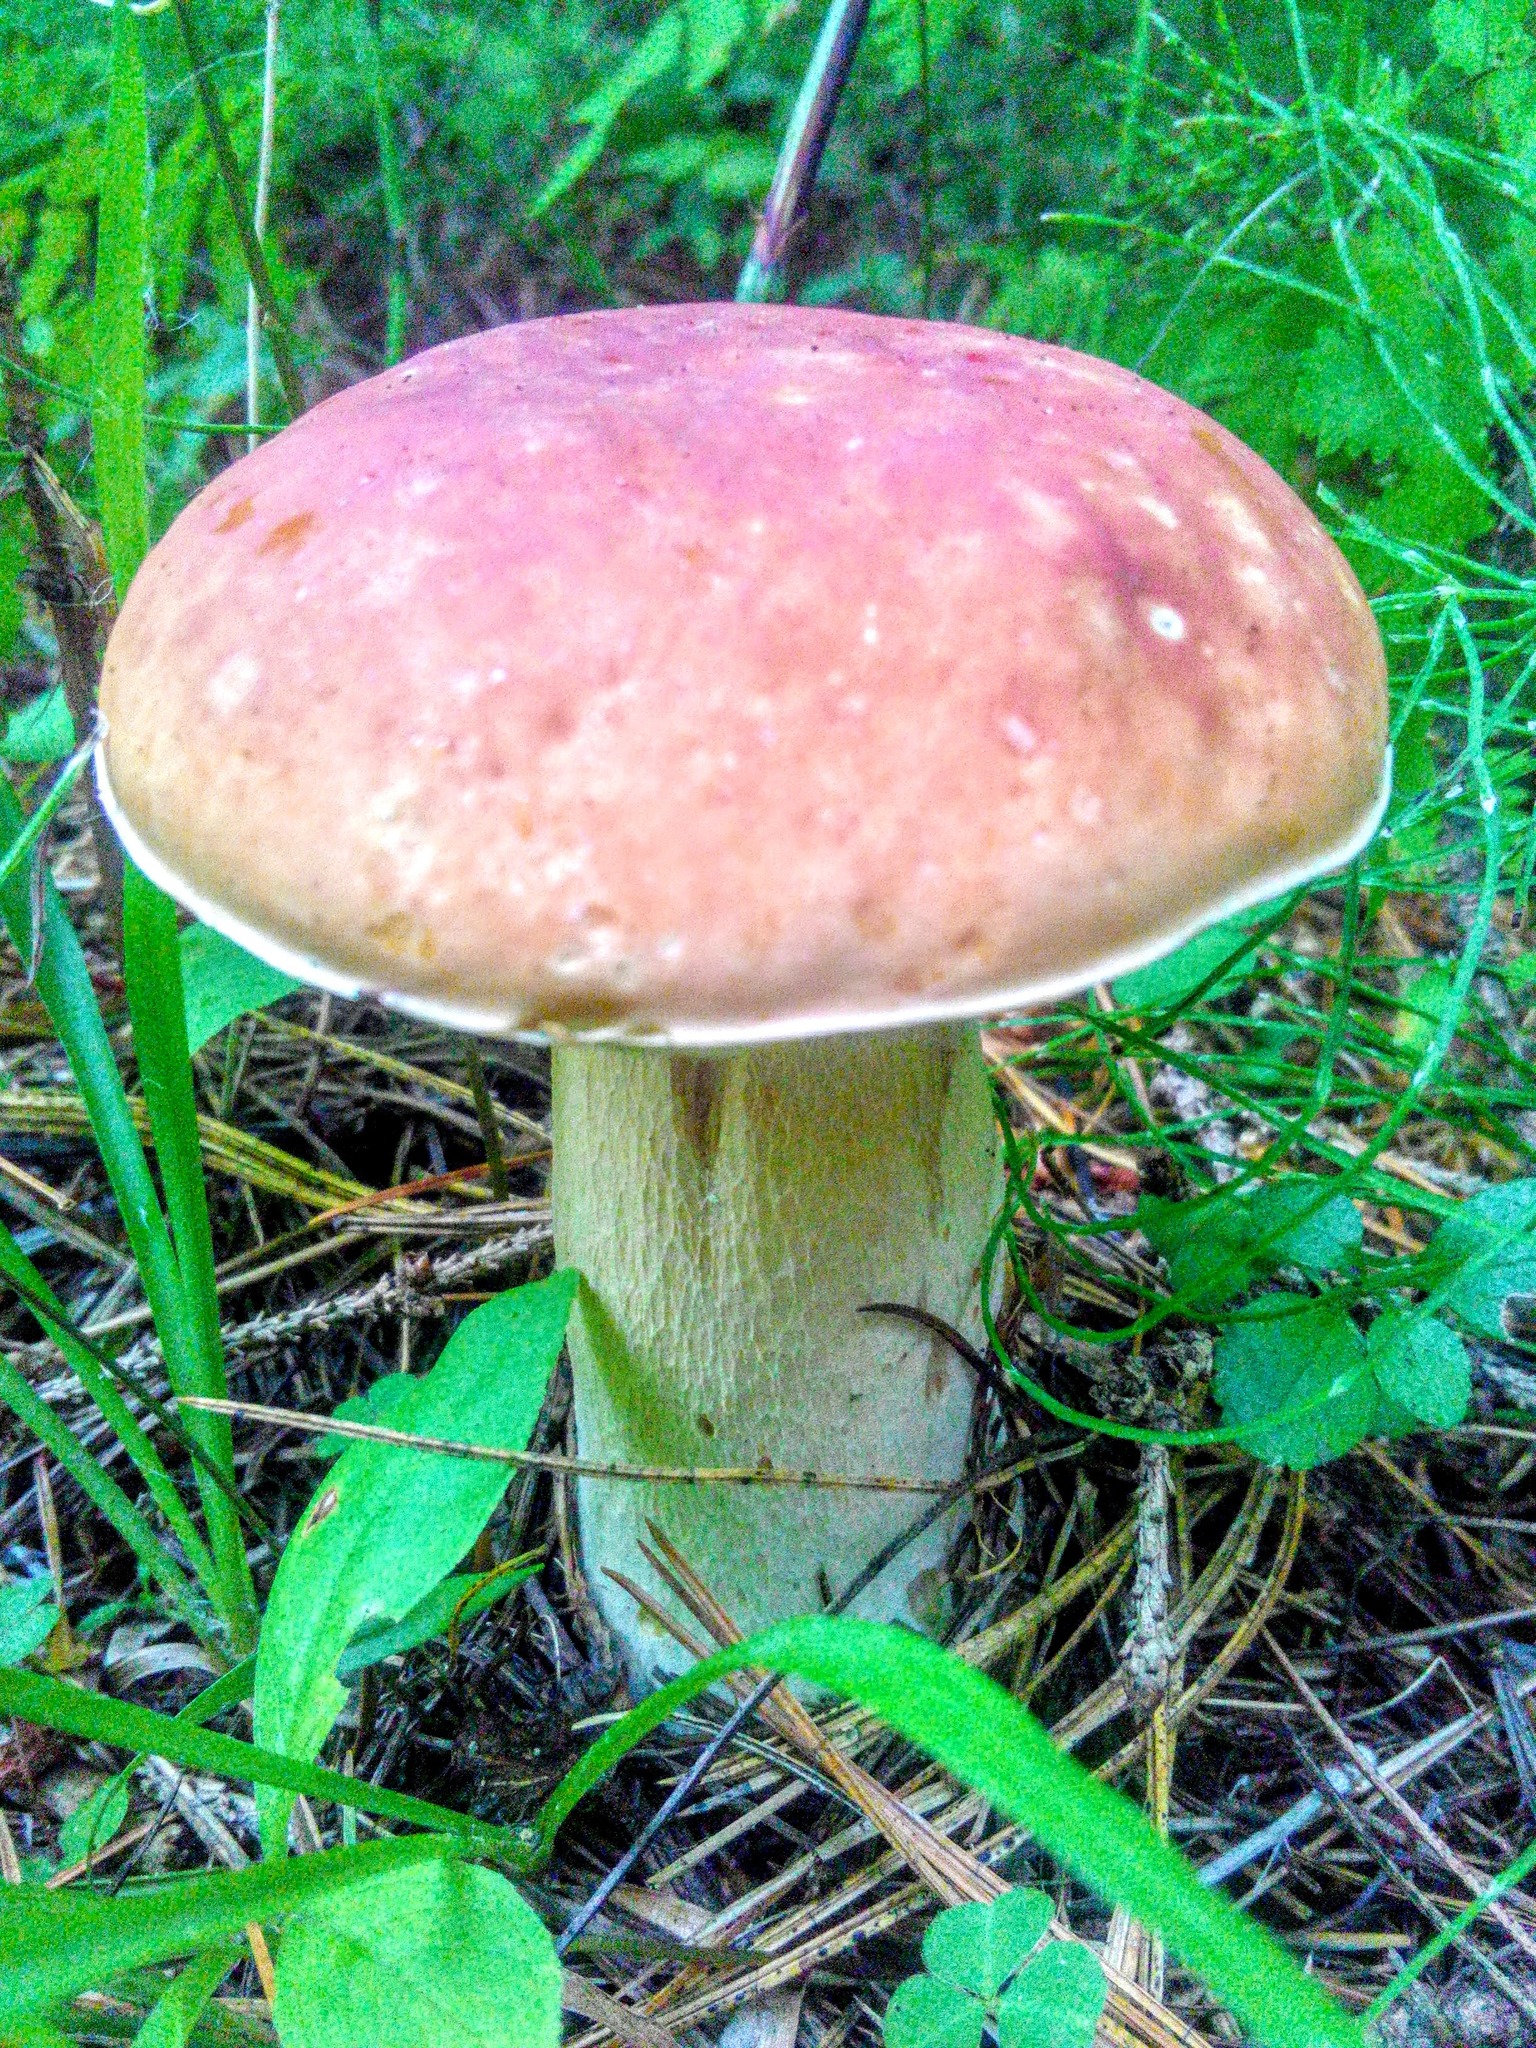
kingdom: Fungi
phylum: Basidiomycota
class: Agaricomycetes
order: Boletales
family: Boletaceae
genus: Boletus
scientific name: Boletus edulis
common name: Cep
